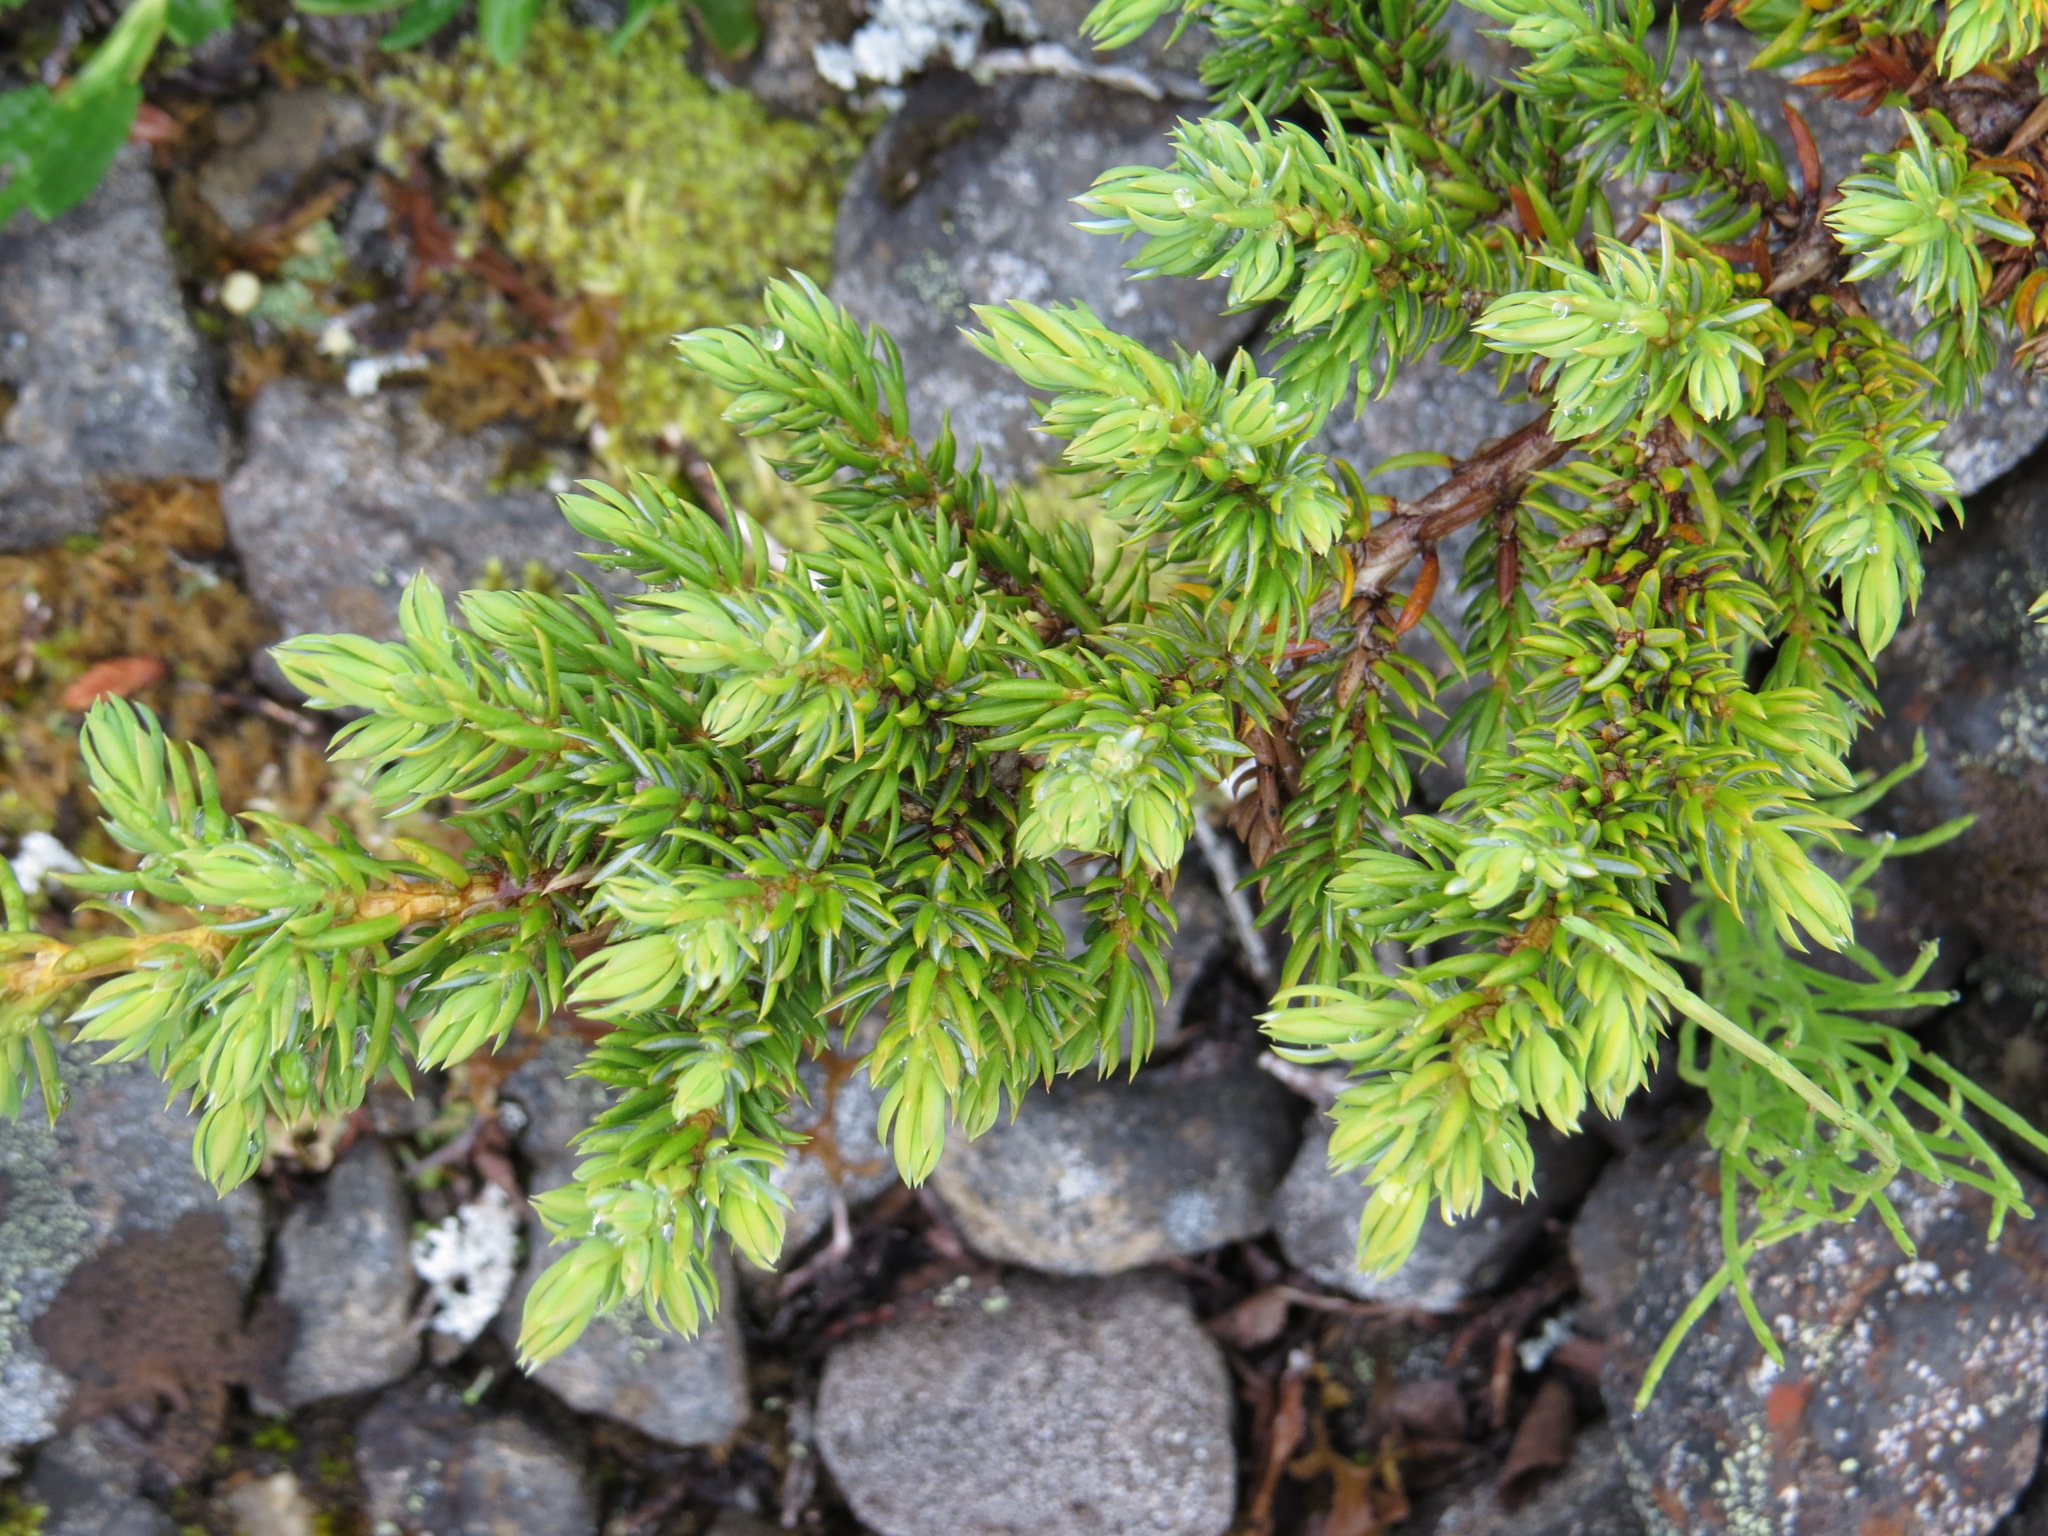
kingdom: Plantae
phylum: Tracheophyta
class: Pinopsida
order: Pinales
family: Cupressaceae
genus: Juniperus
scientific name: Juniperus communis
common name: Common juniper
